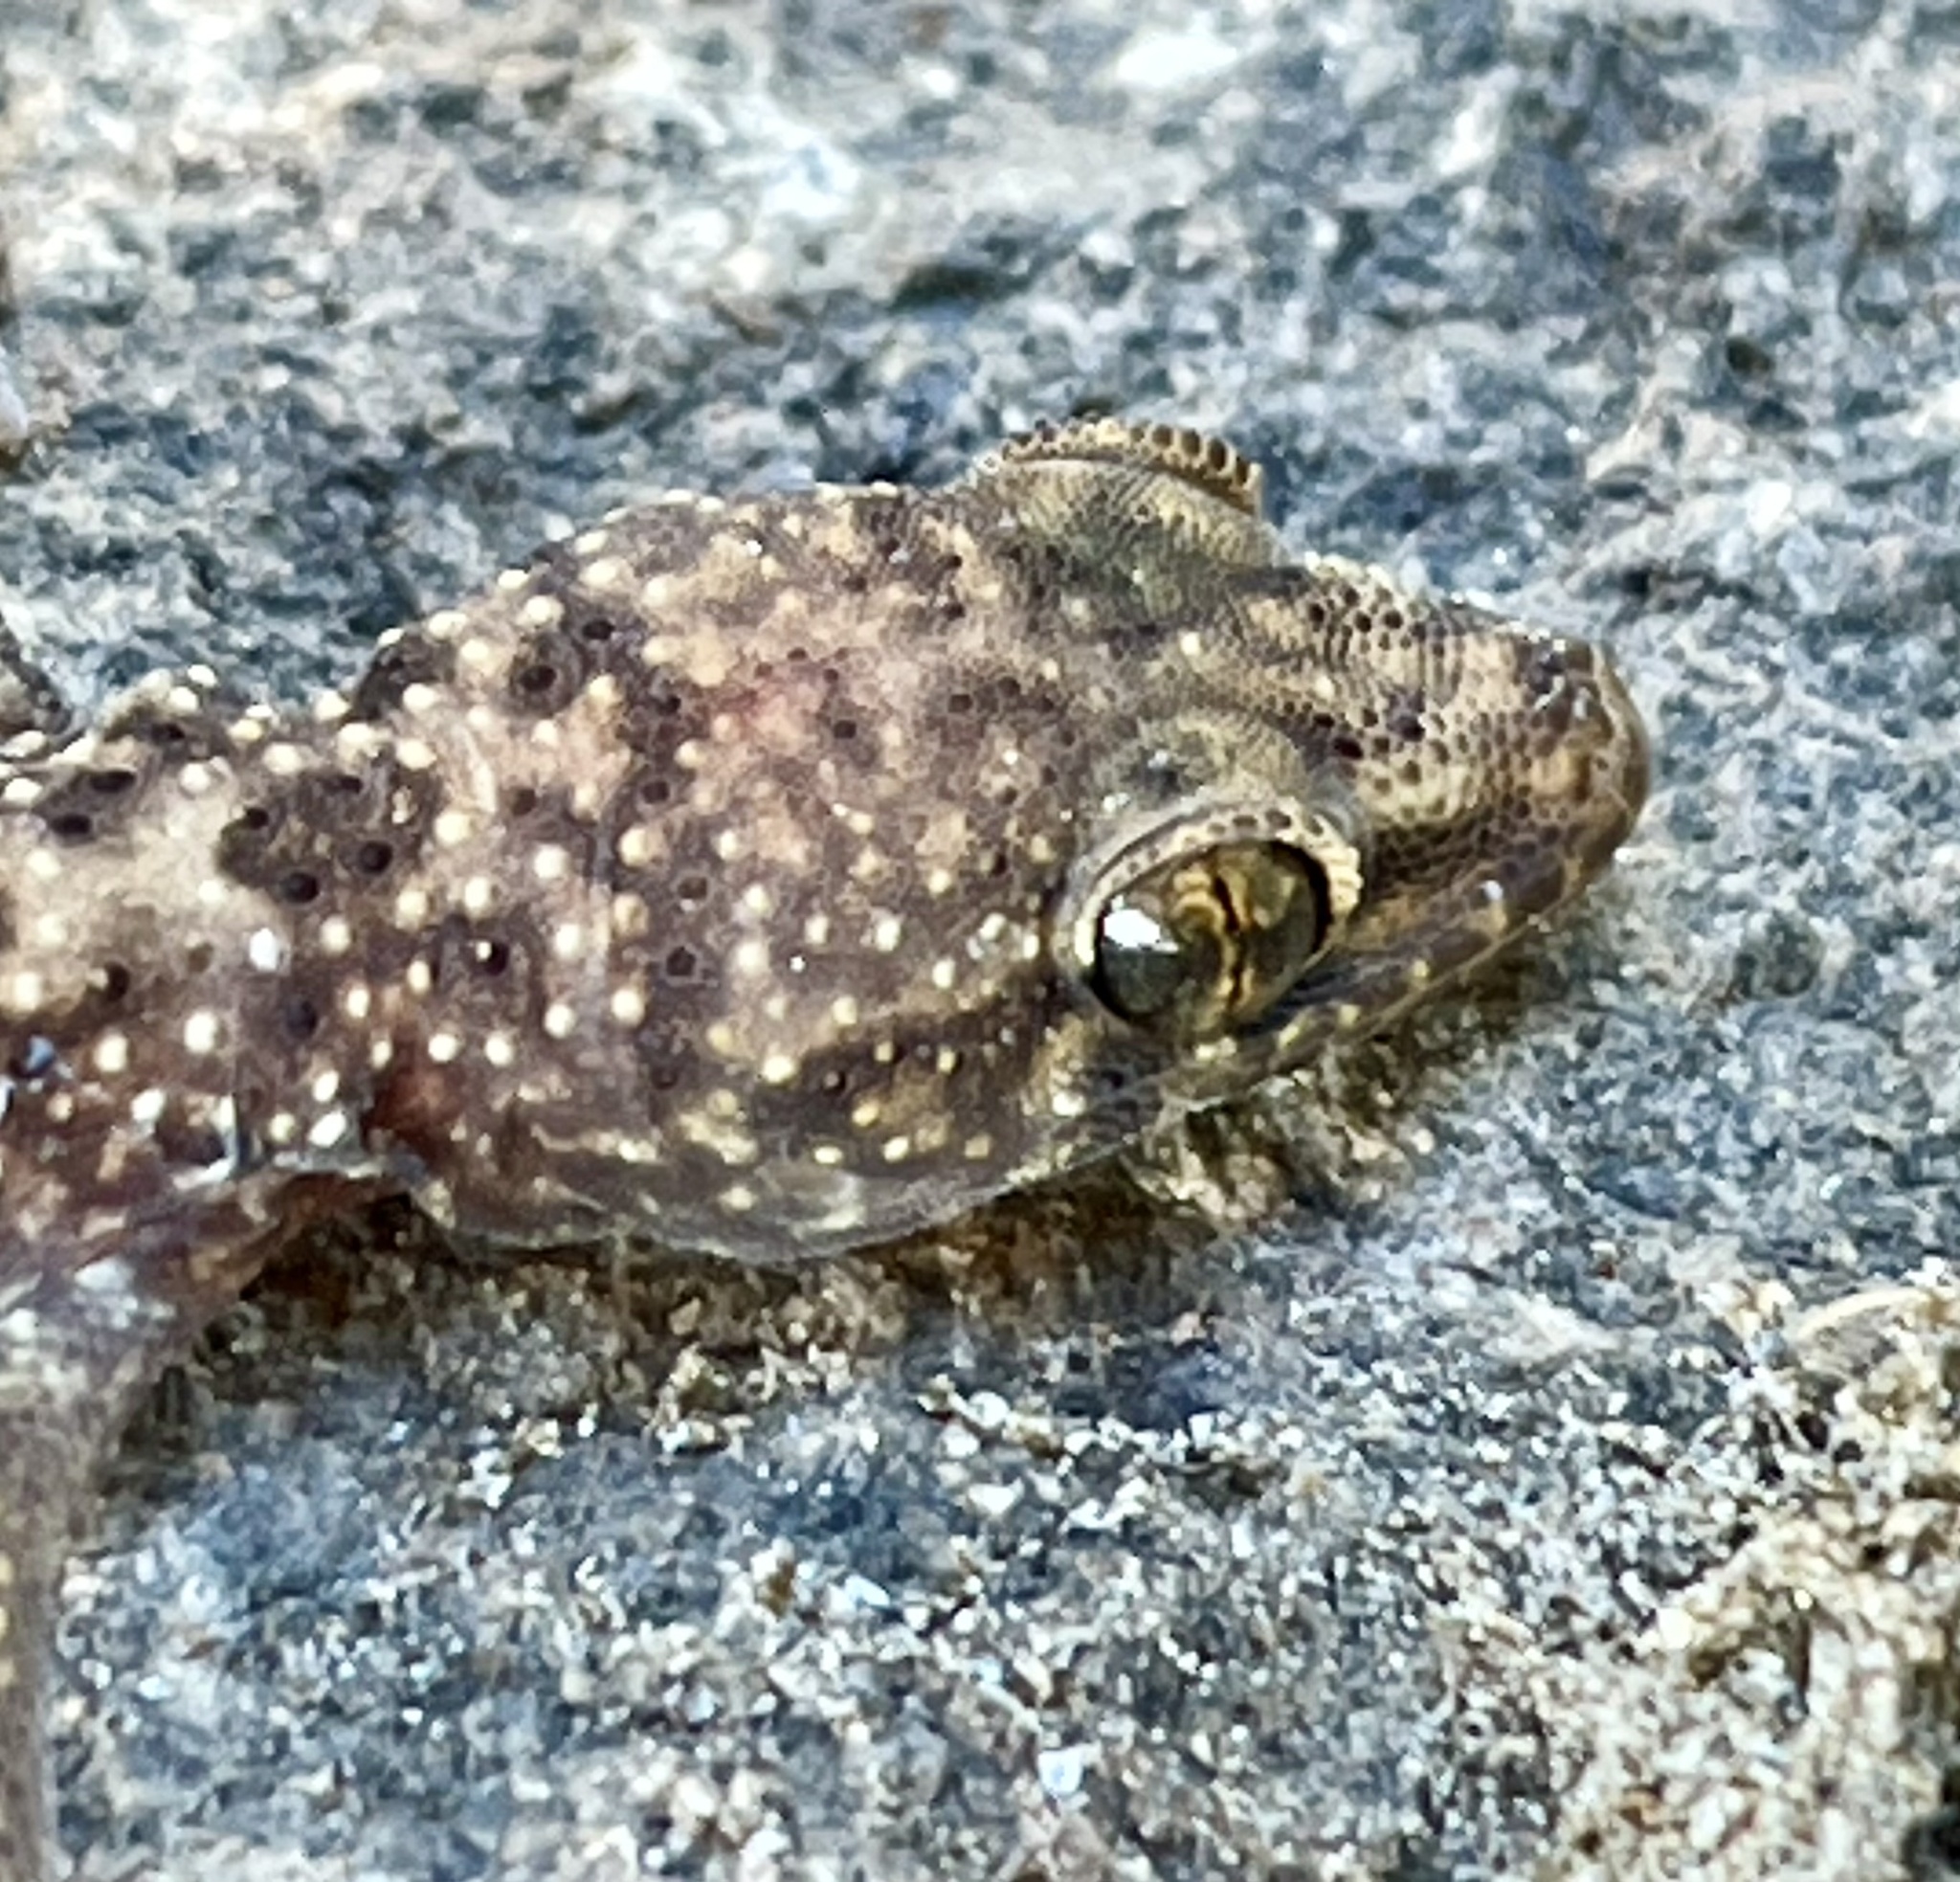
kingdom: Animalia
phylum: Chordata
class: Squamata
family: Gekkonidae
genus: Hemidactylus
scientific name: Hemidactylus turcicus
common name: Turkish gecko
